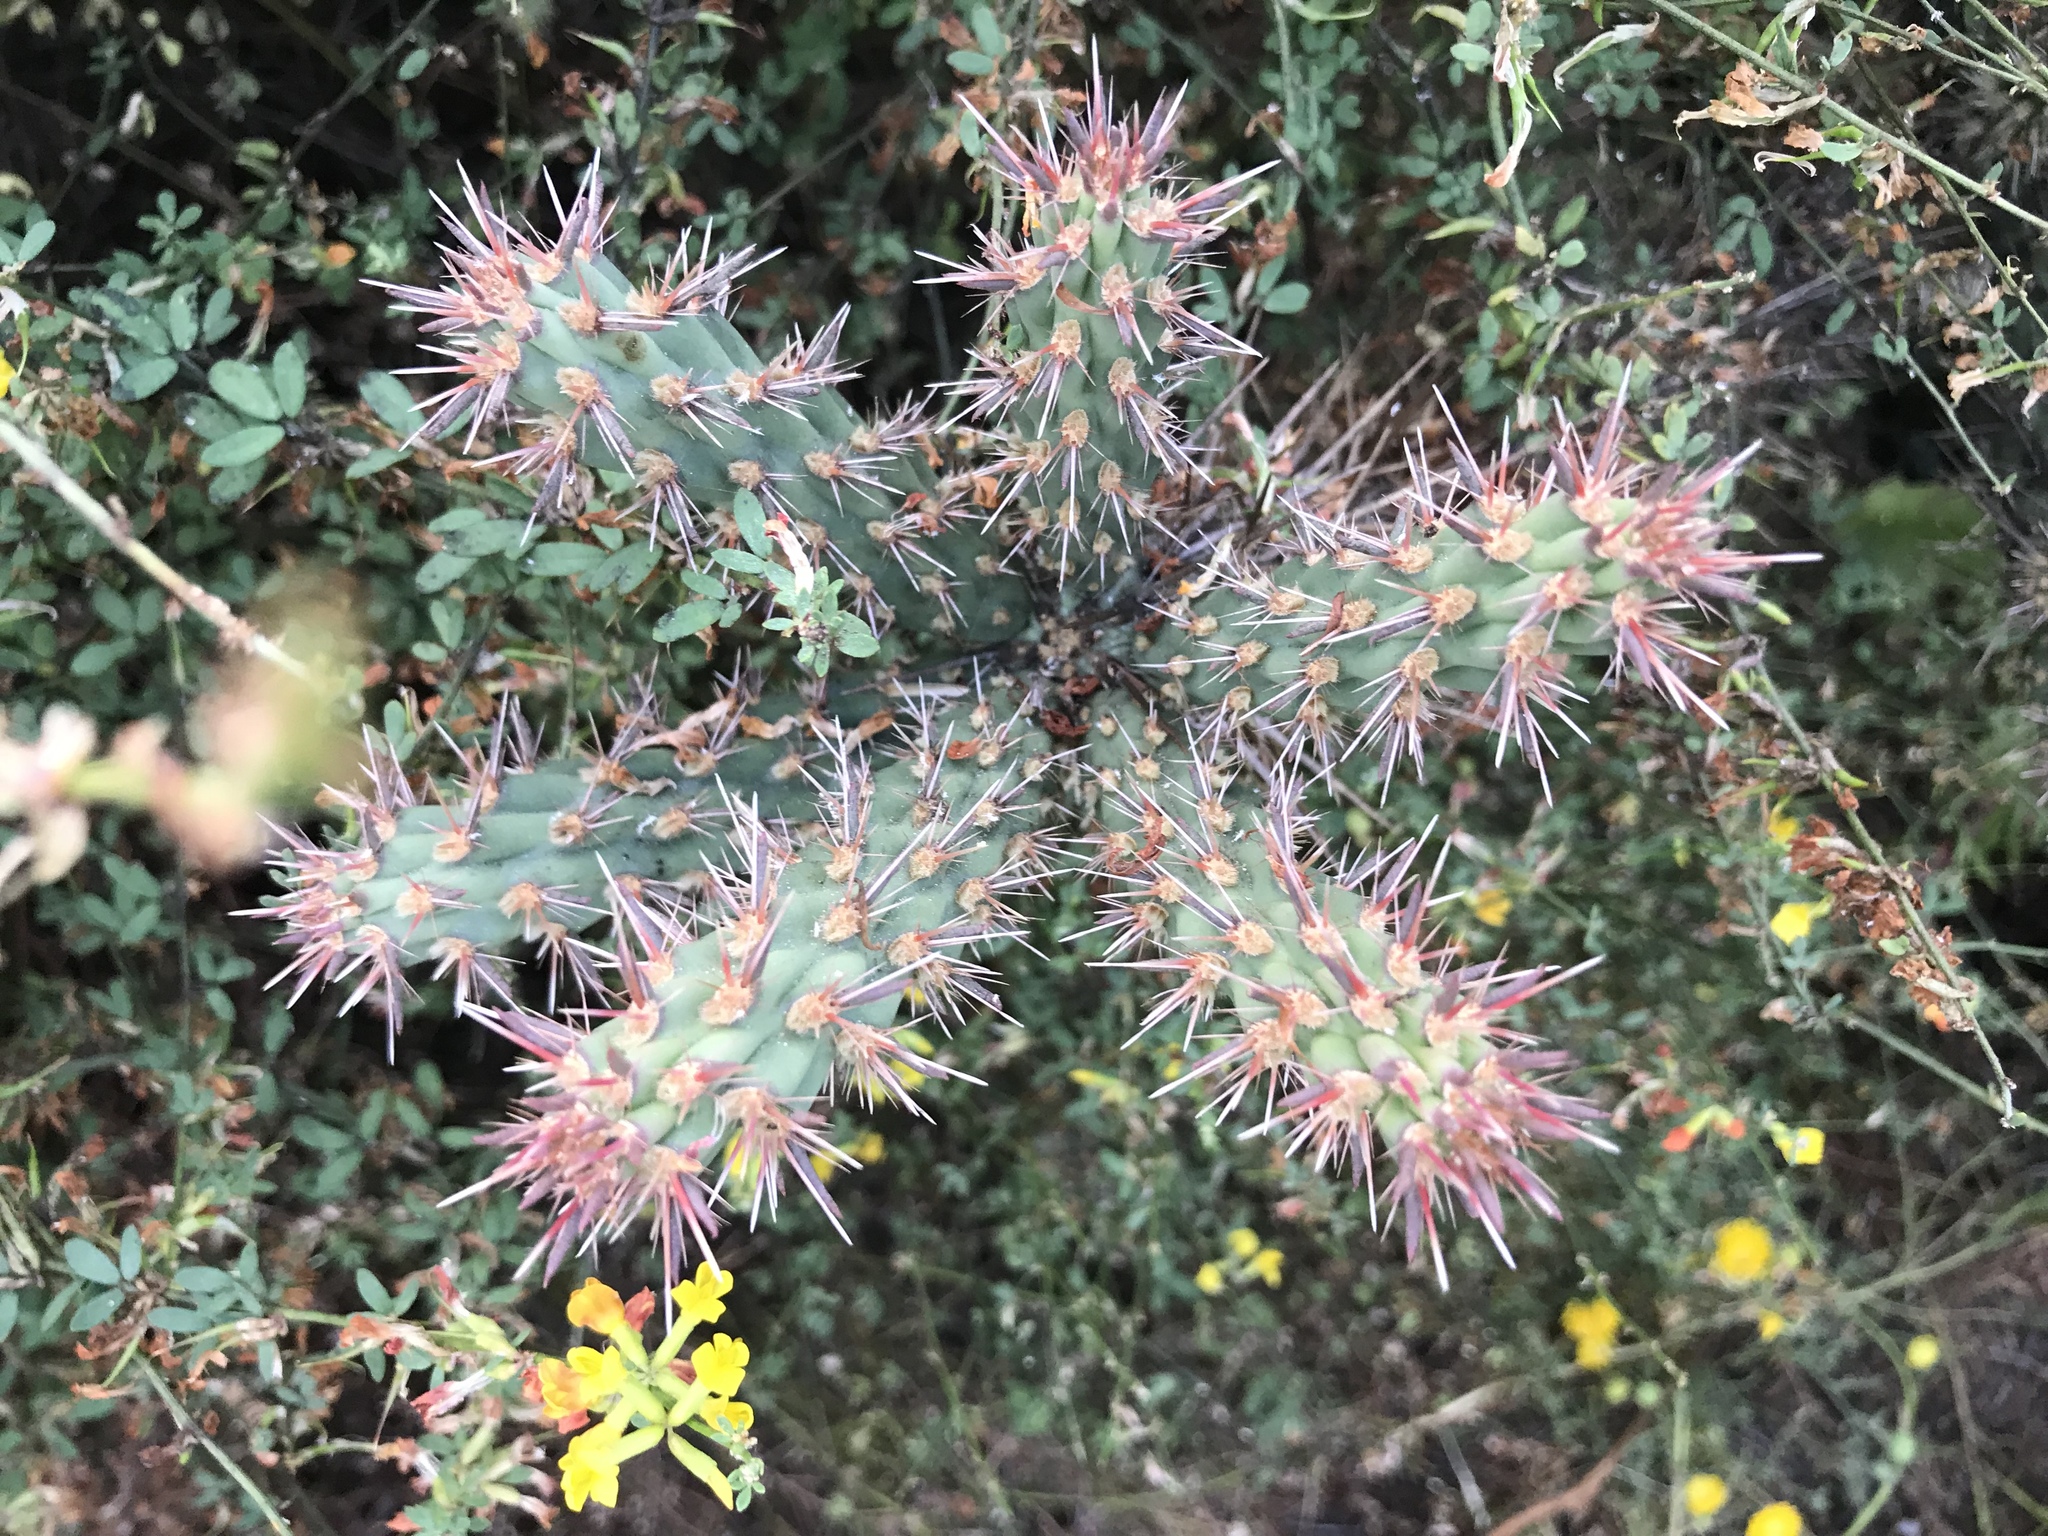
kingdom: Plantae
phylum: Tracheophyta
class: Magnoliopsida
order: Caryophyllales
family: Cactaceae
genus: Cylindropuntia
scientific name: Cylindropuntia prolifera
